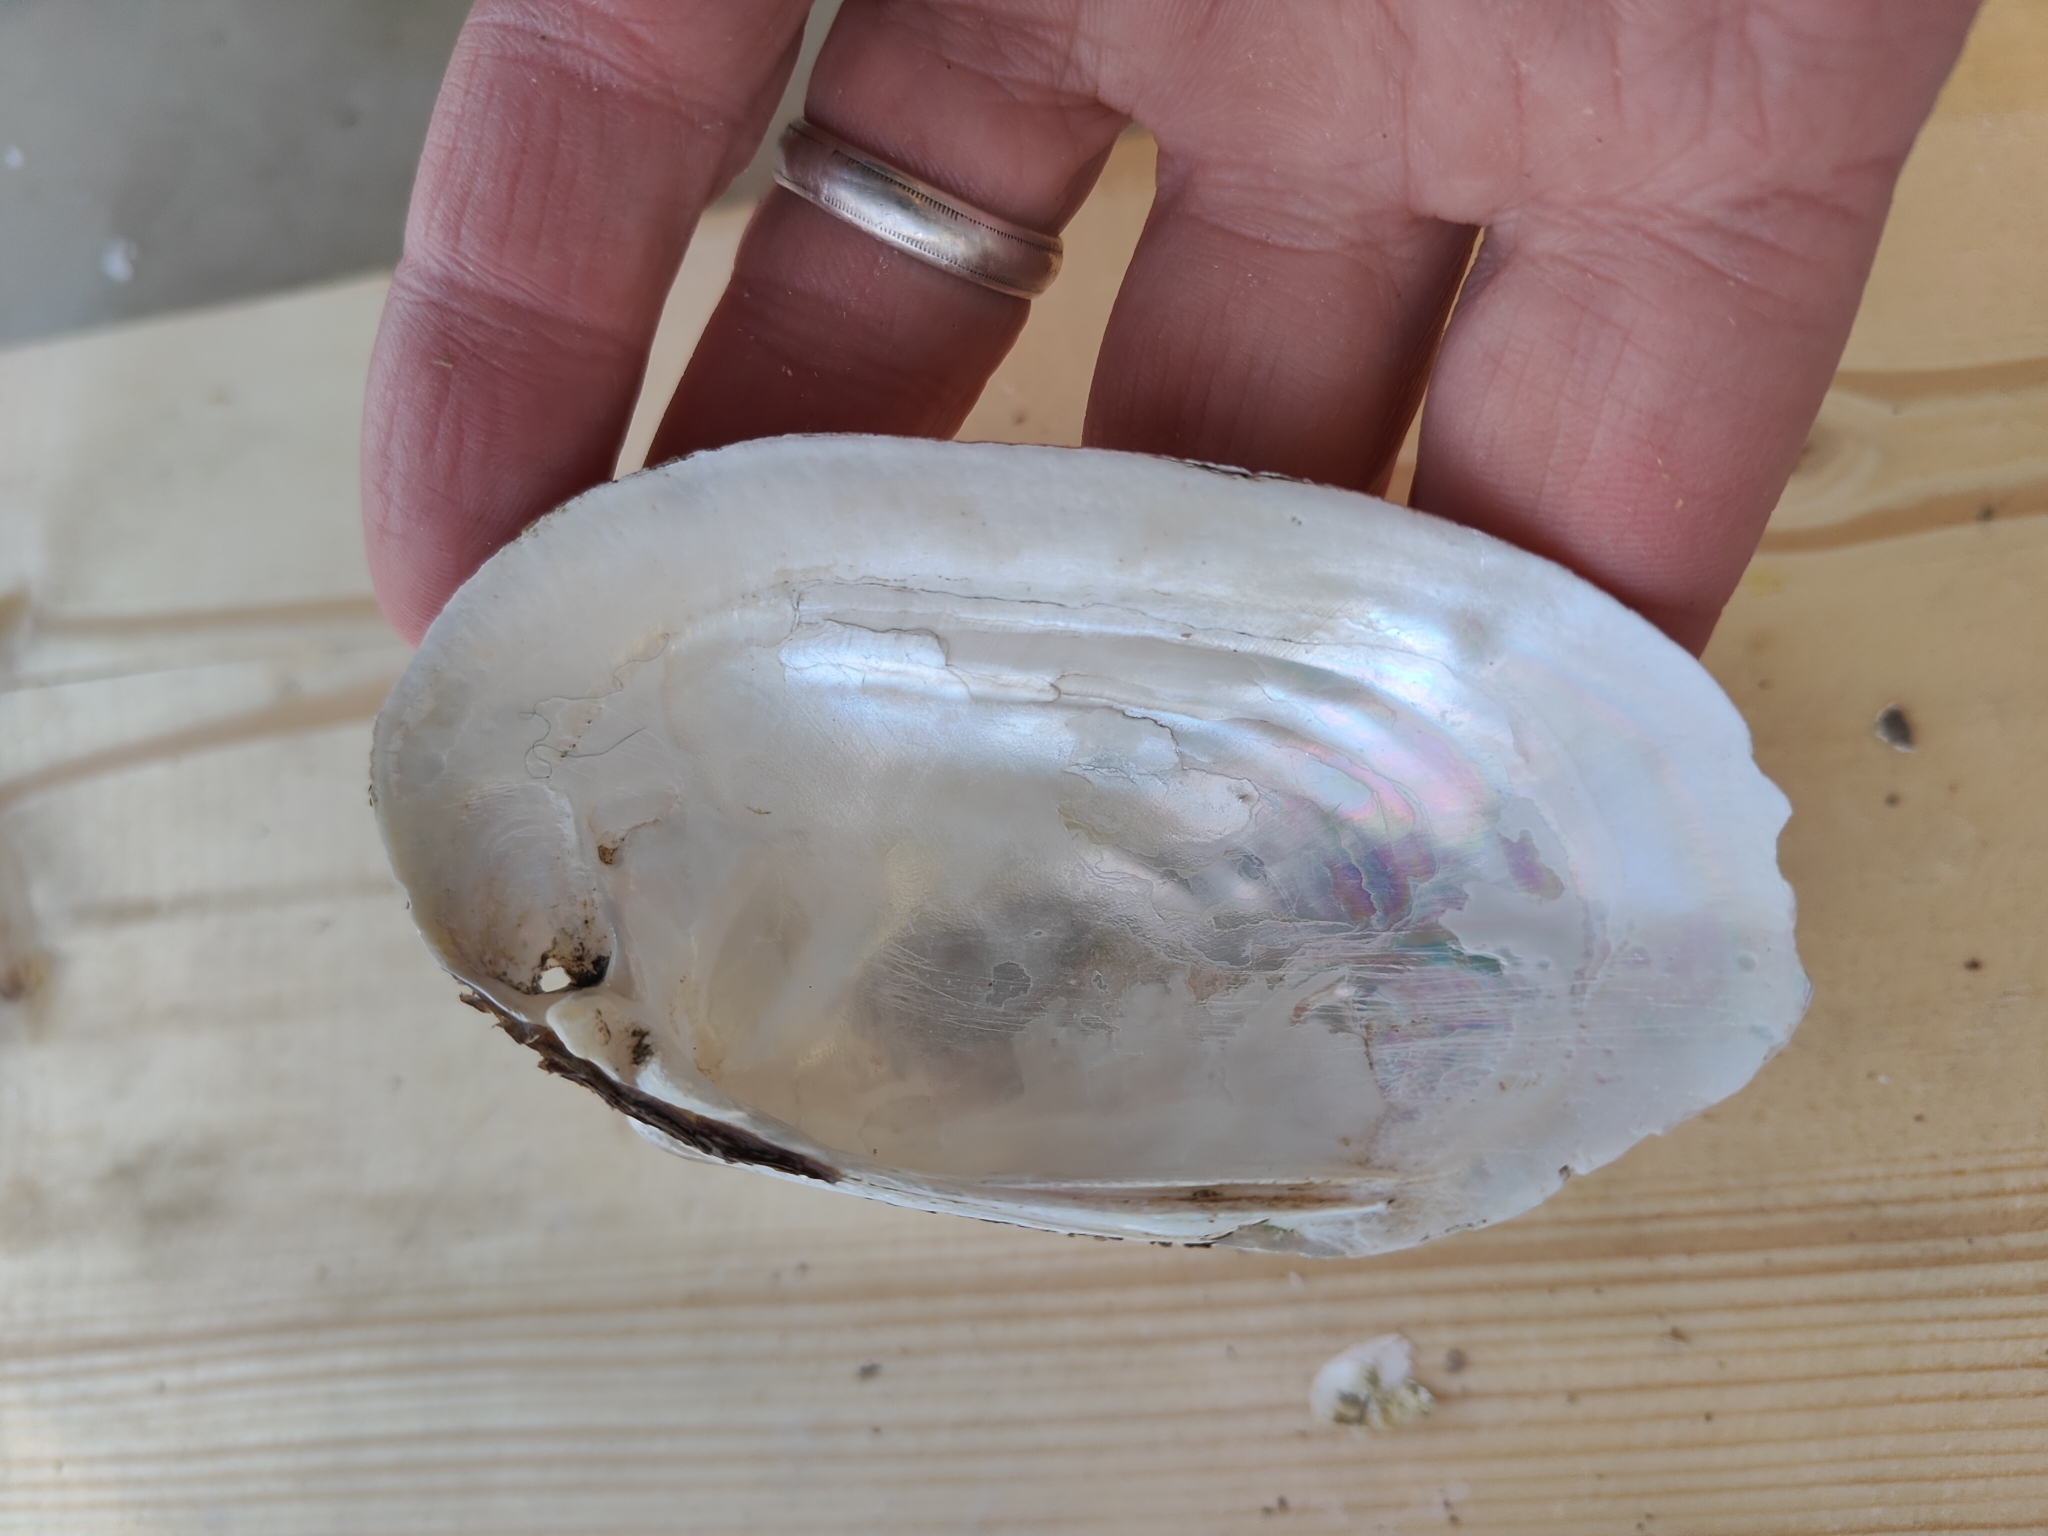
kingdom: Animalia
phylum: Mollusca
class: Bivalvia
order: Unionida
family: Unionidae
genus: Lampsilis
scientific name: Lampsilis siliquoidea
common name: Fatmucket
